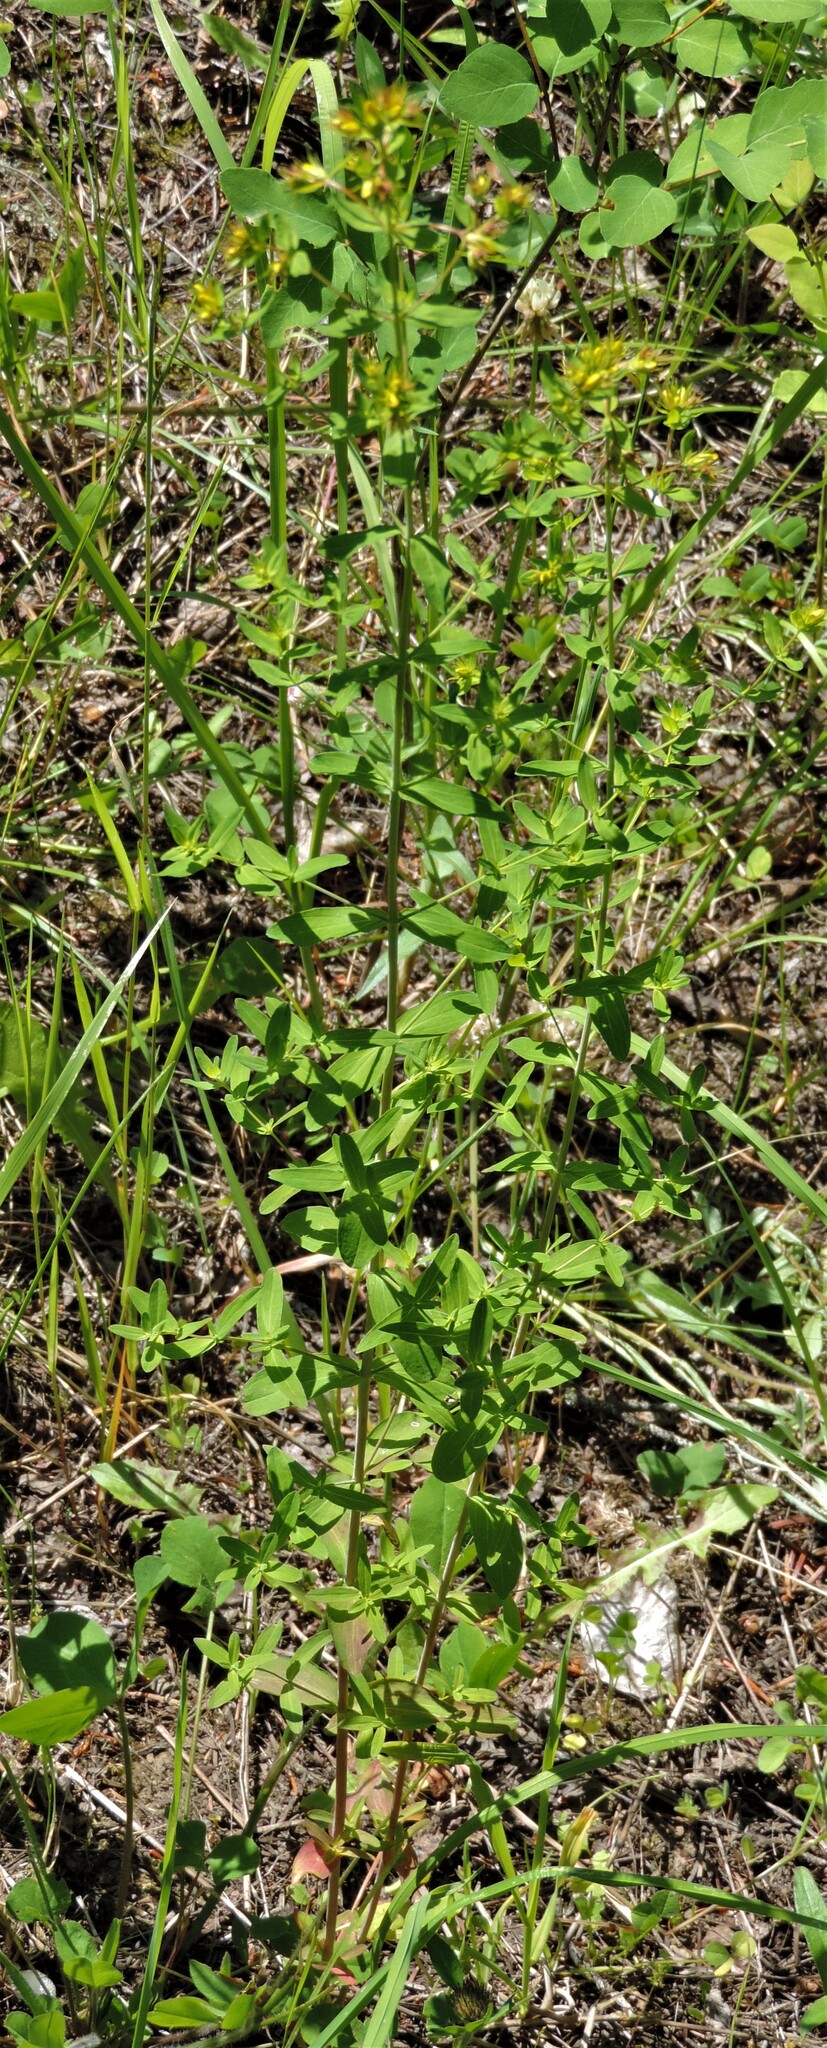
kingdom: Plantae
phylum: Tracheophyta
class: Magnoliopsida
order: Malpighiales
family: Hypericaceae
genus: Hypericum
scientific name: Hypericum perforatum
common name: Common st. johnswort
